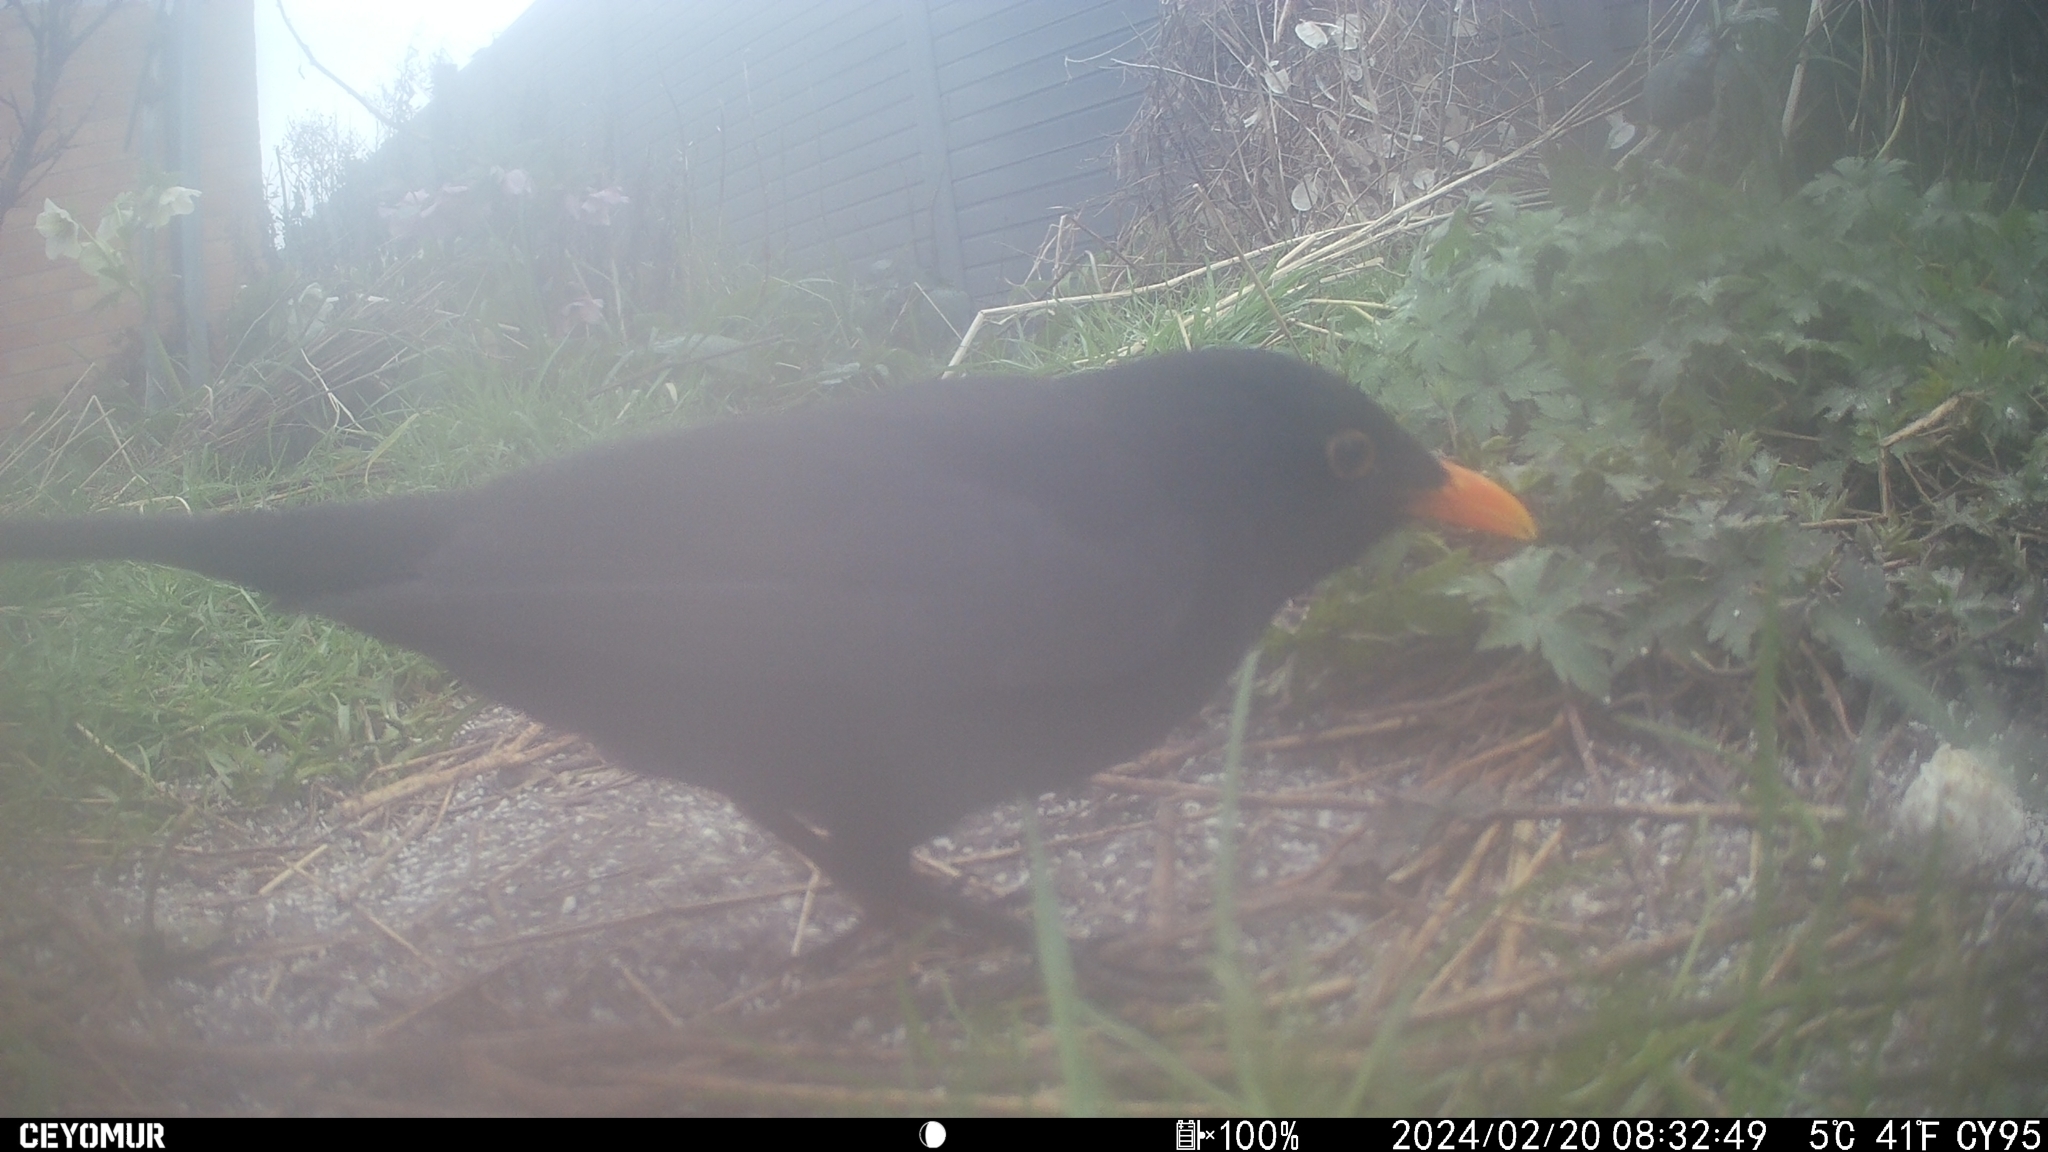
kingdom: Animalia
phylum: Chordata
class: Aves
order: Passeriformes
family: Turdidae
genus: Turdus
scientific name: Turdus merula
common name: Common blackbird
